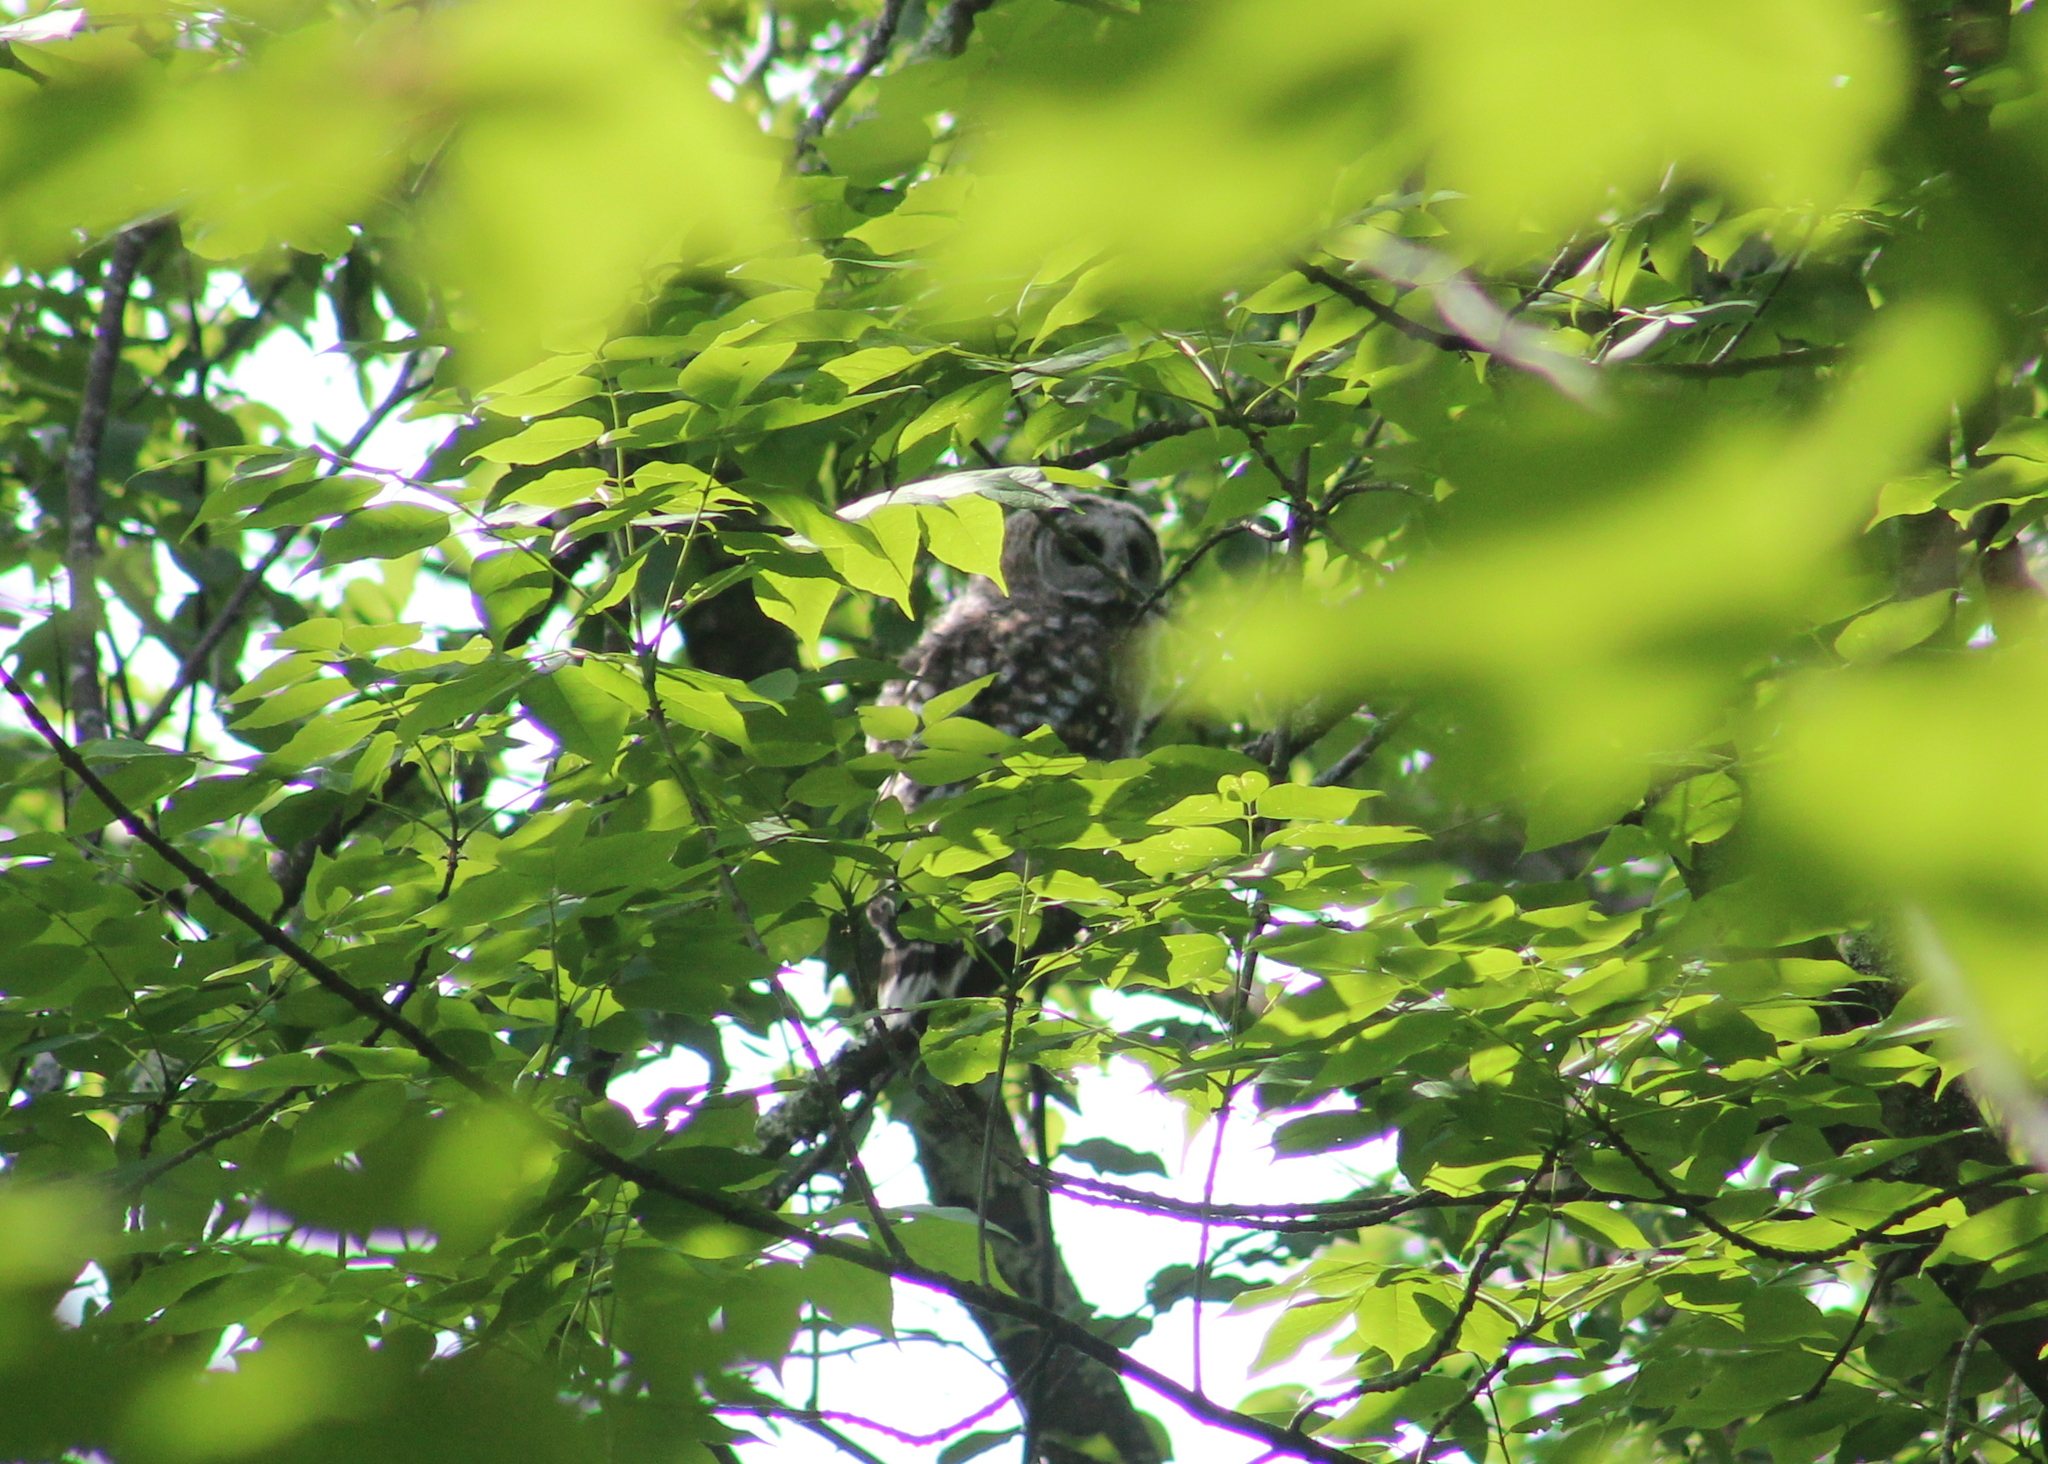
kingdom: Animalia
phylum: Chordata
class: Aves
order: Strigiformes
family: Strigidae
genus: Strix
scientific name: Strix varia
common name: Barred owl
